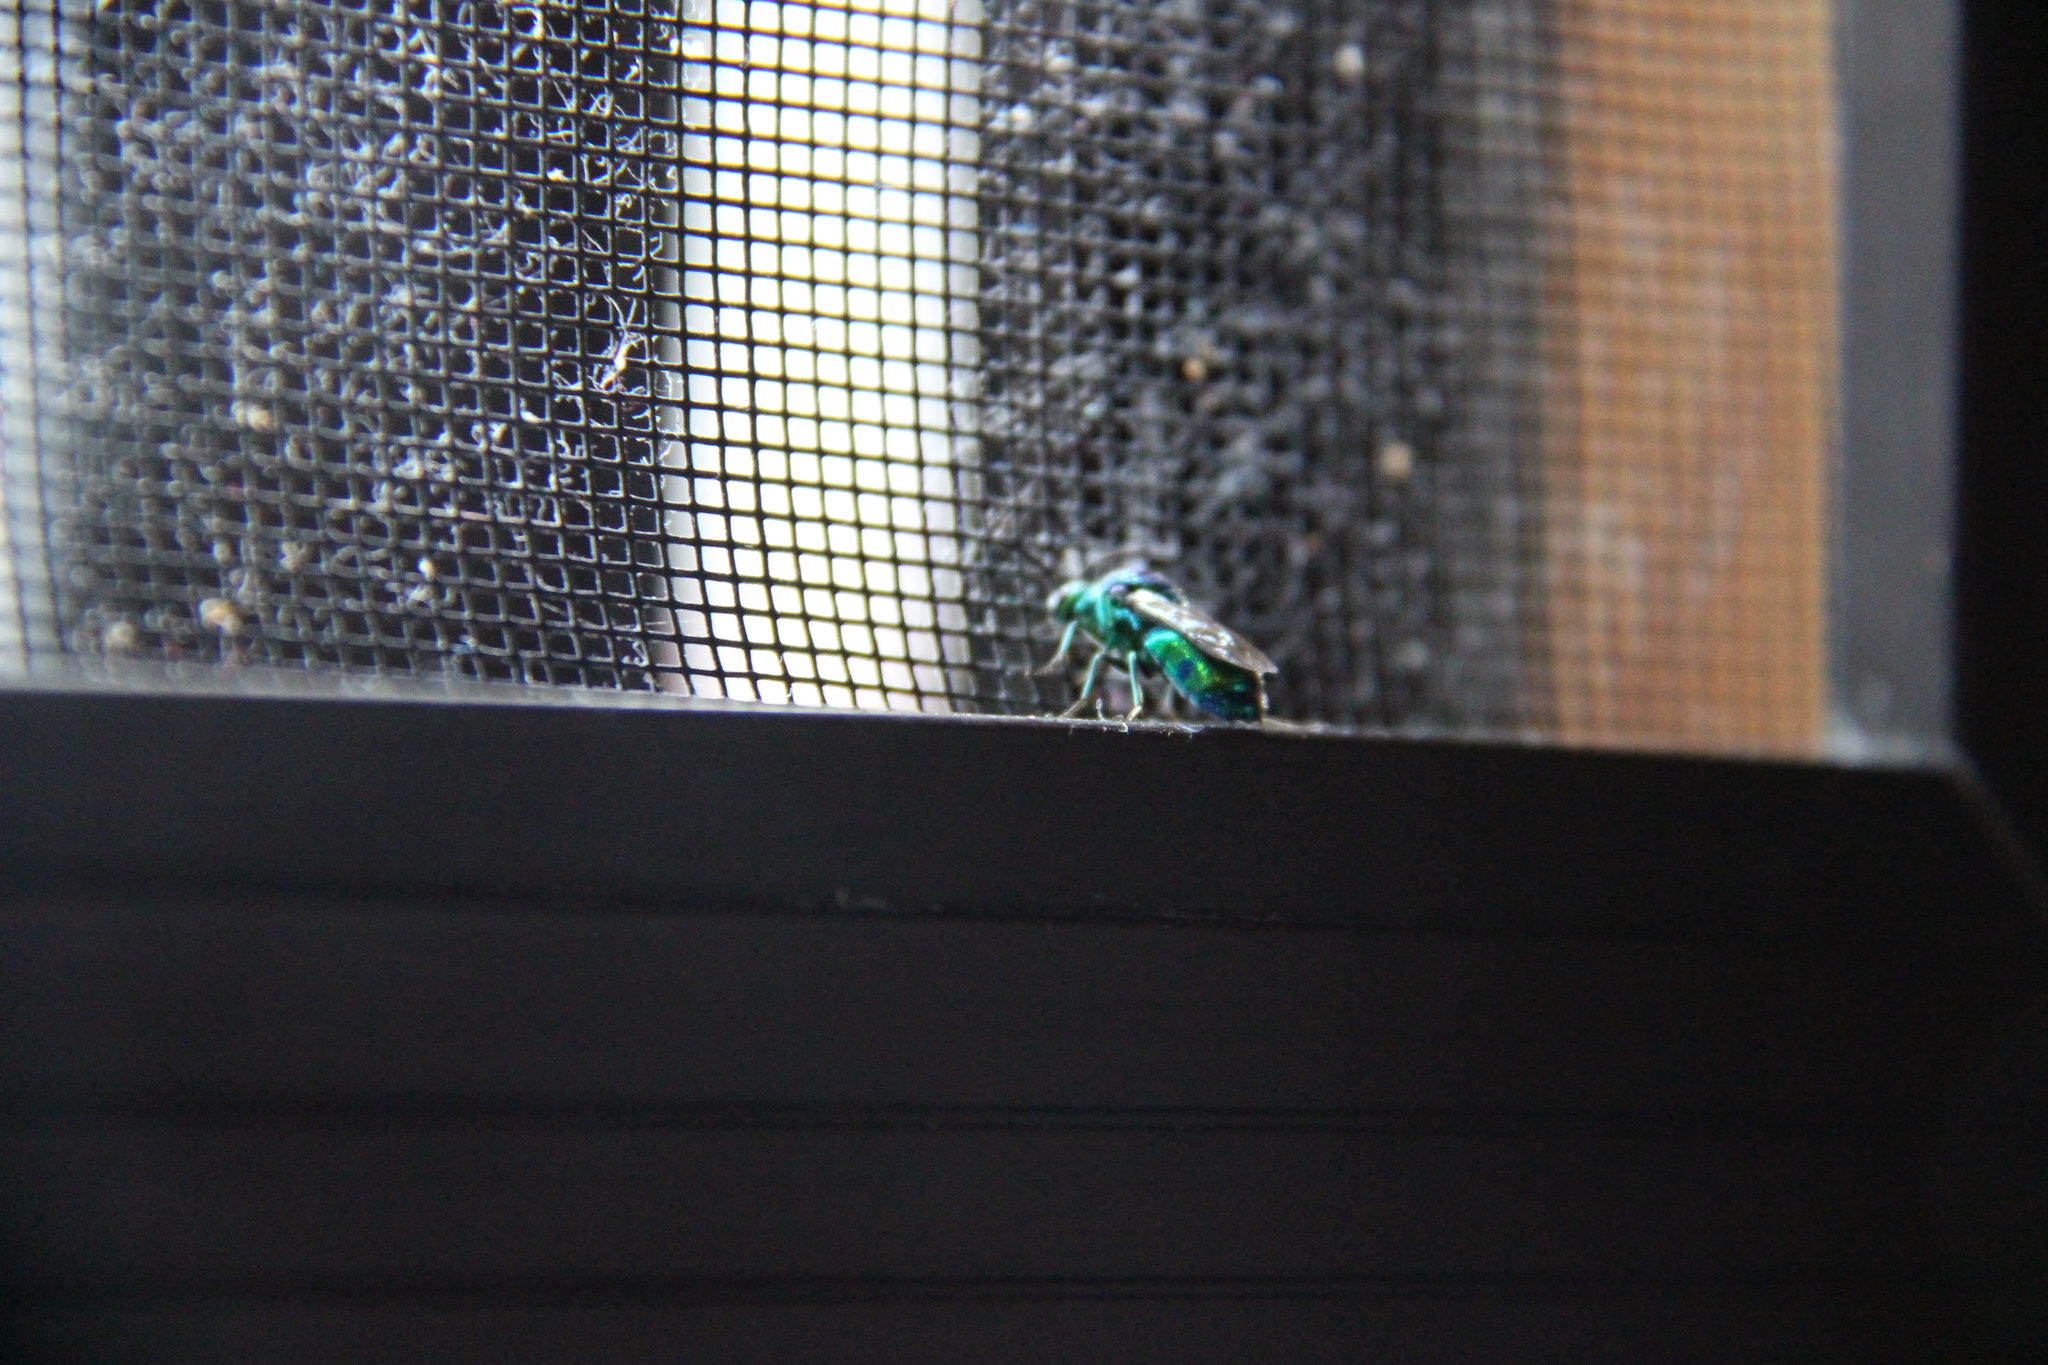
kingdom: Animalia
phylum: Arthropoda
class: Insecta
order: Hymenoptera
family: Chrysididae
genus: Chrysis
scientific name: Chrysis lincea
